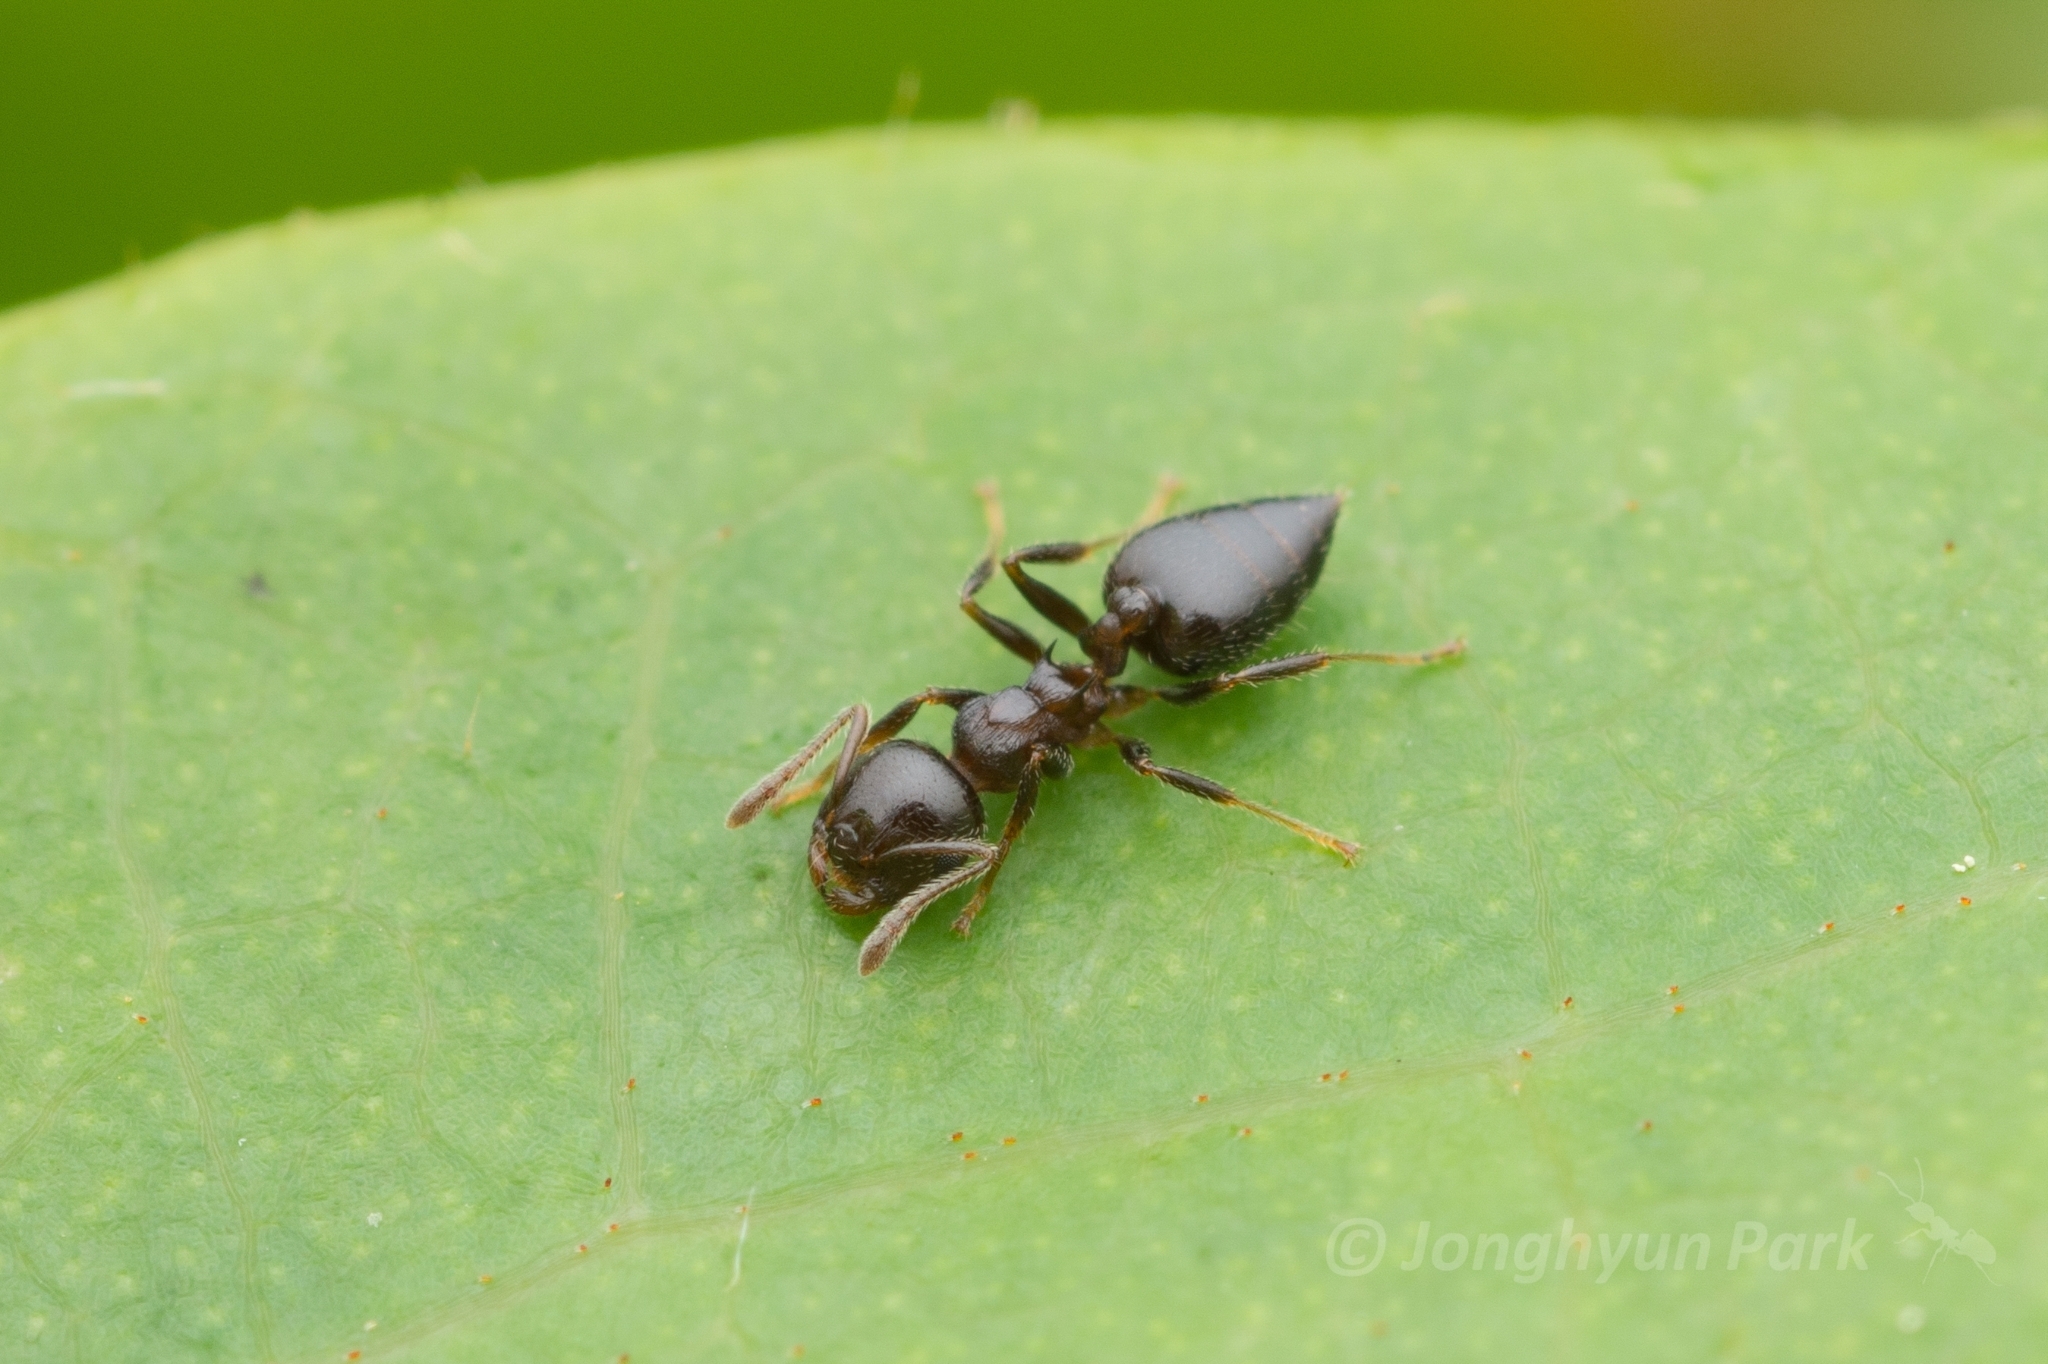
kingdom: Animalia
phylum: Arthropoda
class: Insecta
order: Hymenoptera
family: Formicidae
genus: Crematogaster
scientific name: Crematogaster teranishii
